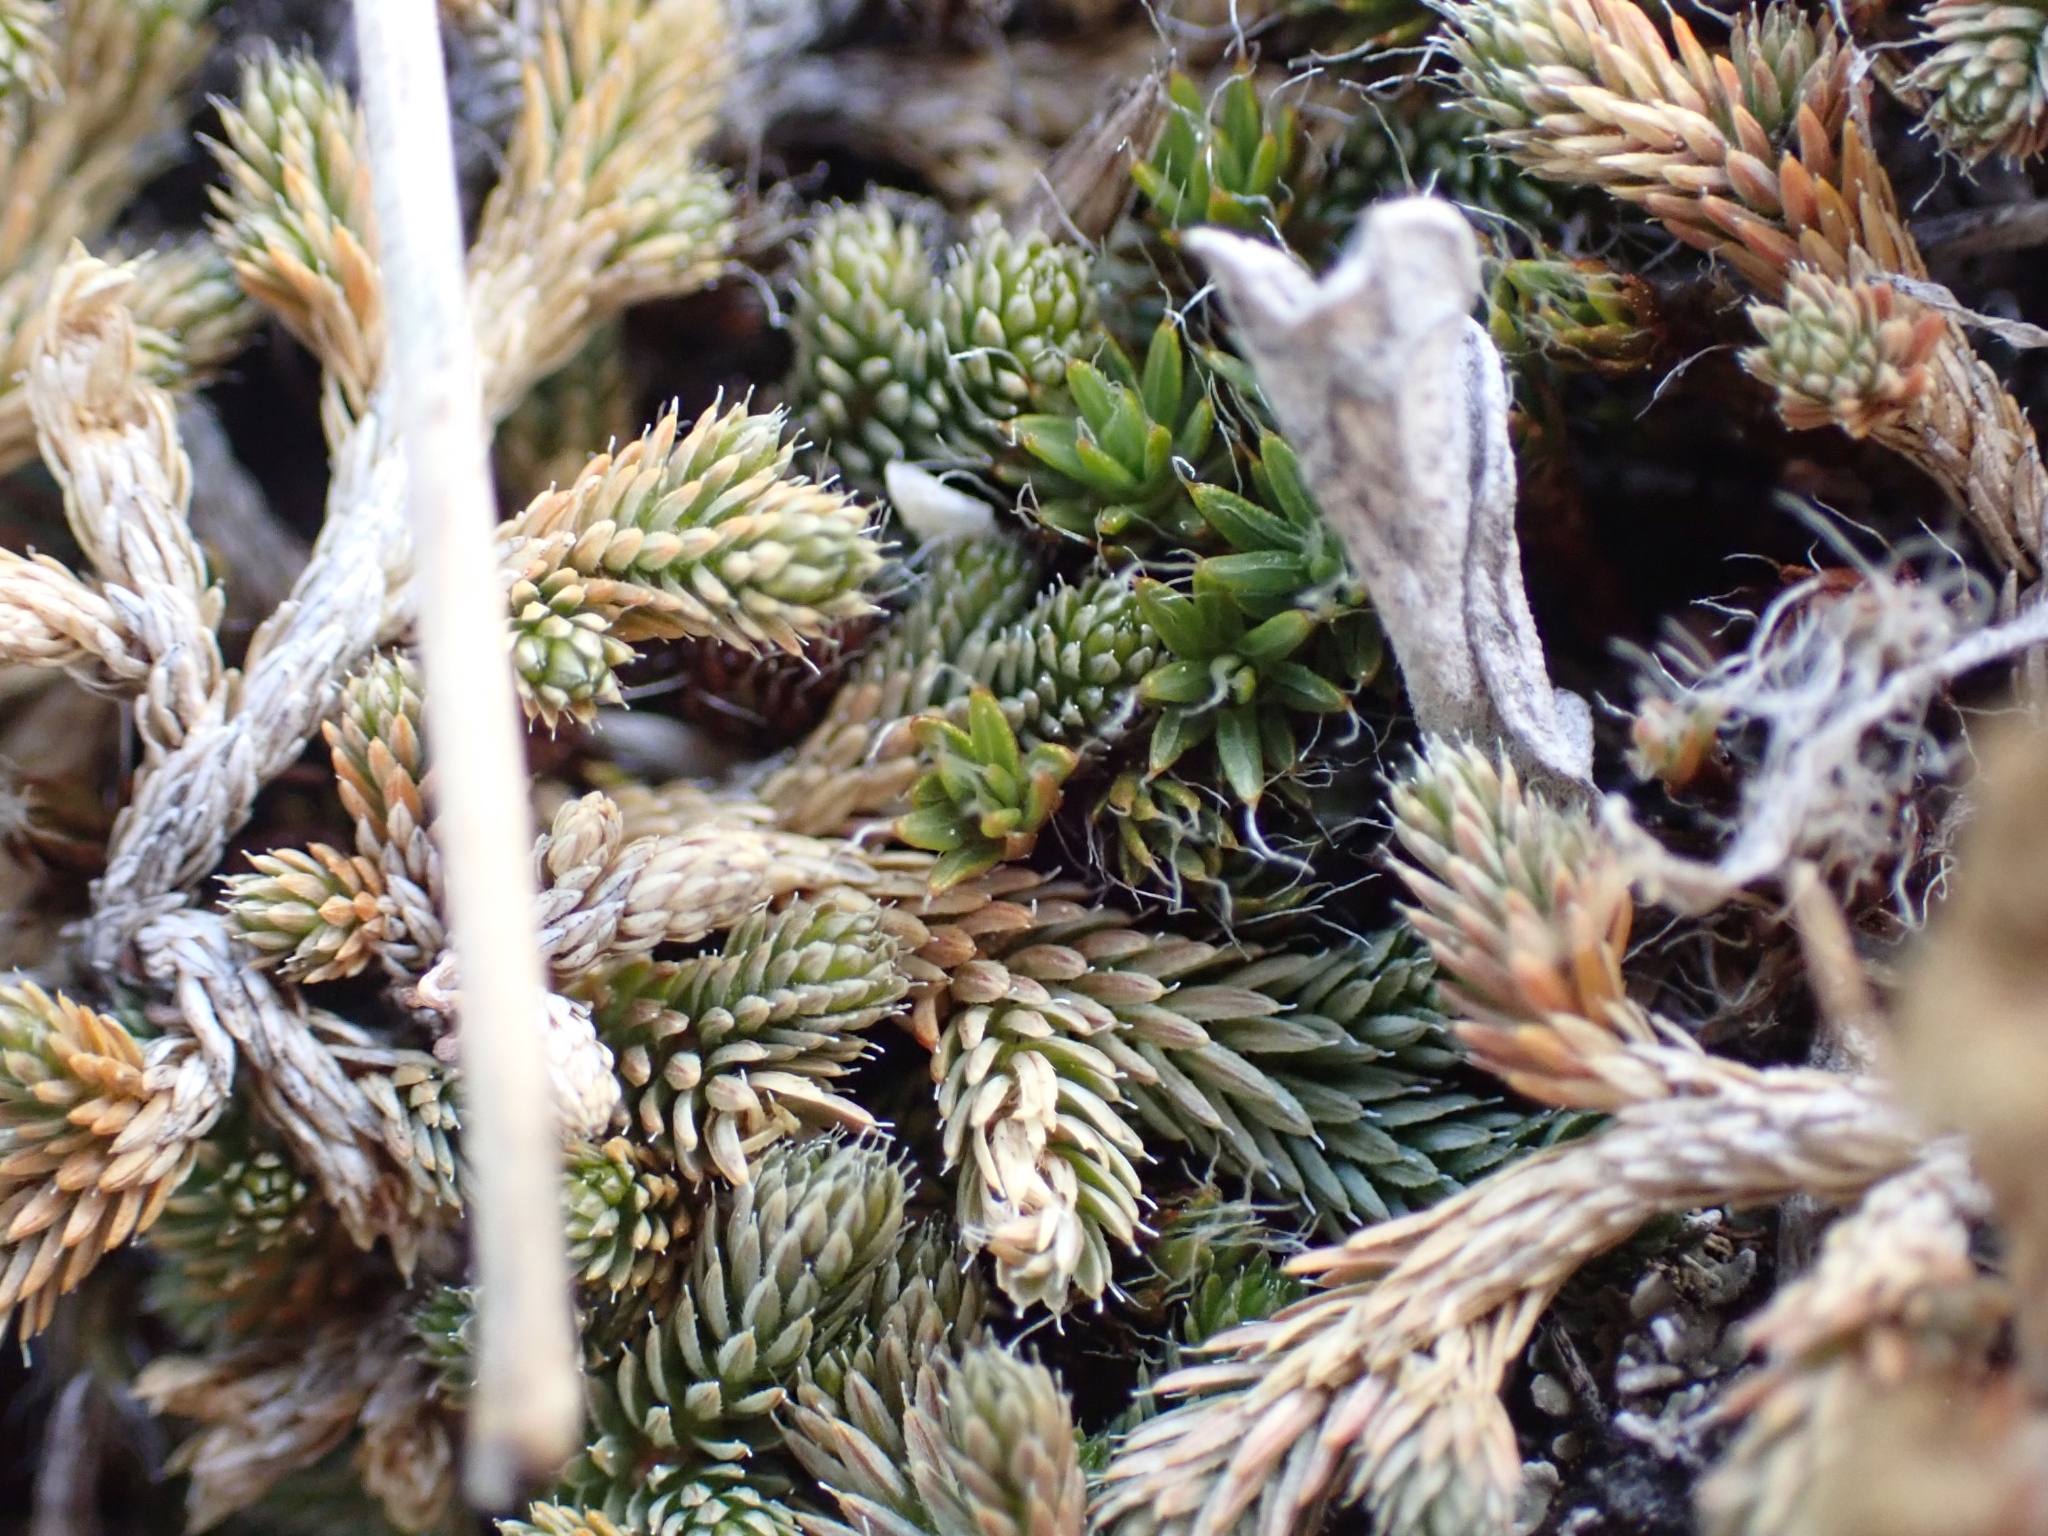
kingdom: Plantae
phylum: Tracheophyta
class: Lycopodiopsida
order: Selaginellales
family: Selaginellaceae
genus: Selaginella
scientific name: Selaginella wallacei
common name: Wallace's selaginella
